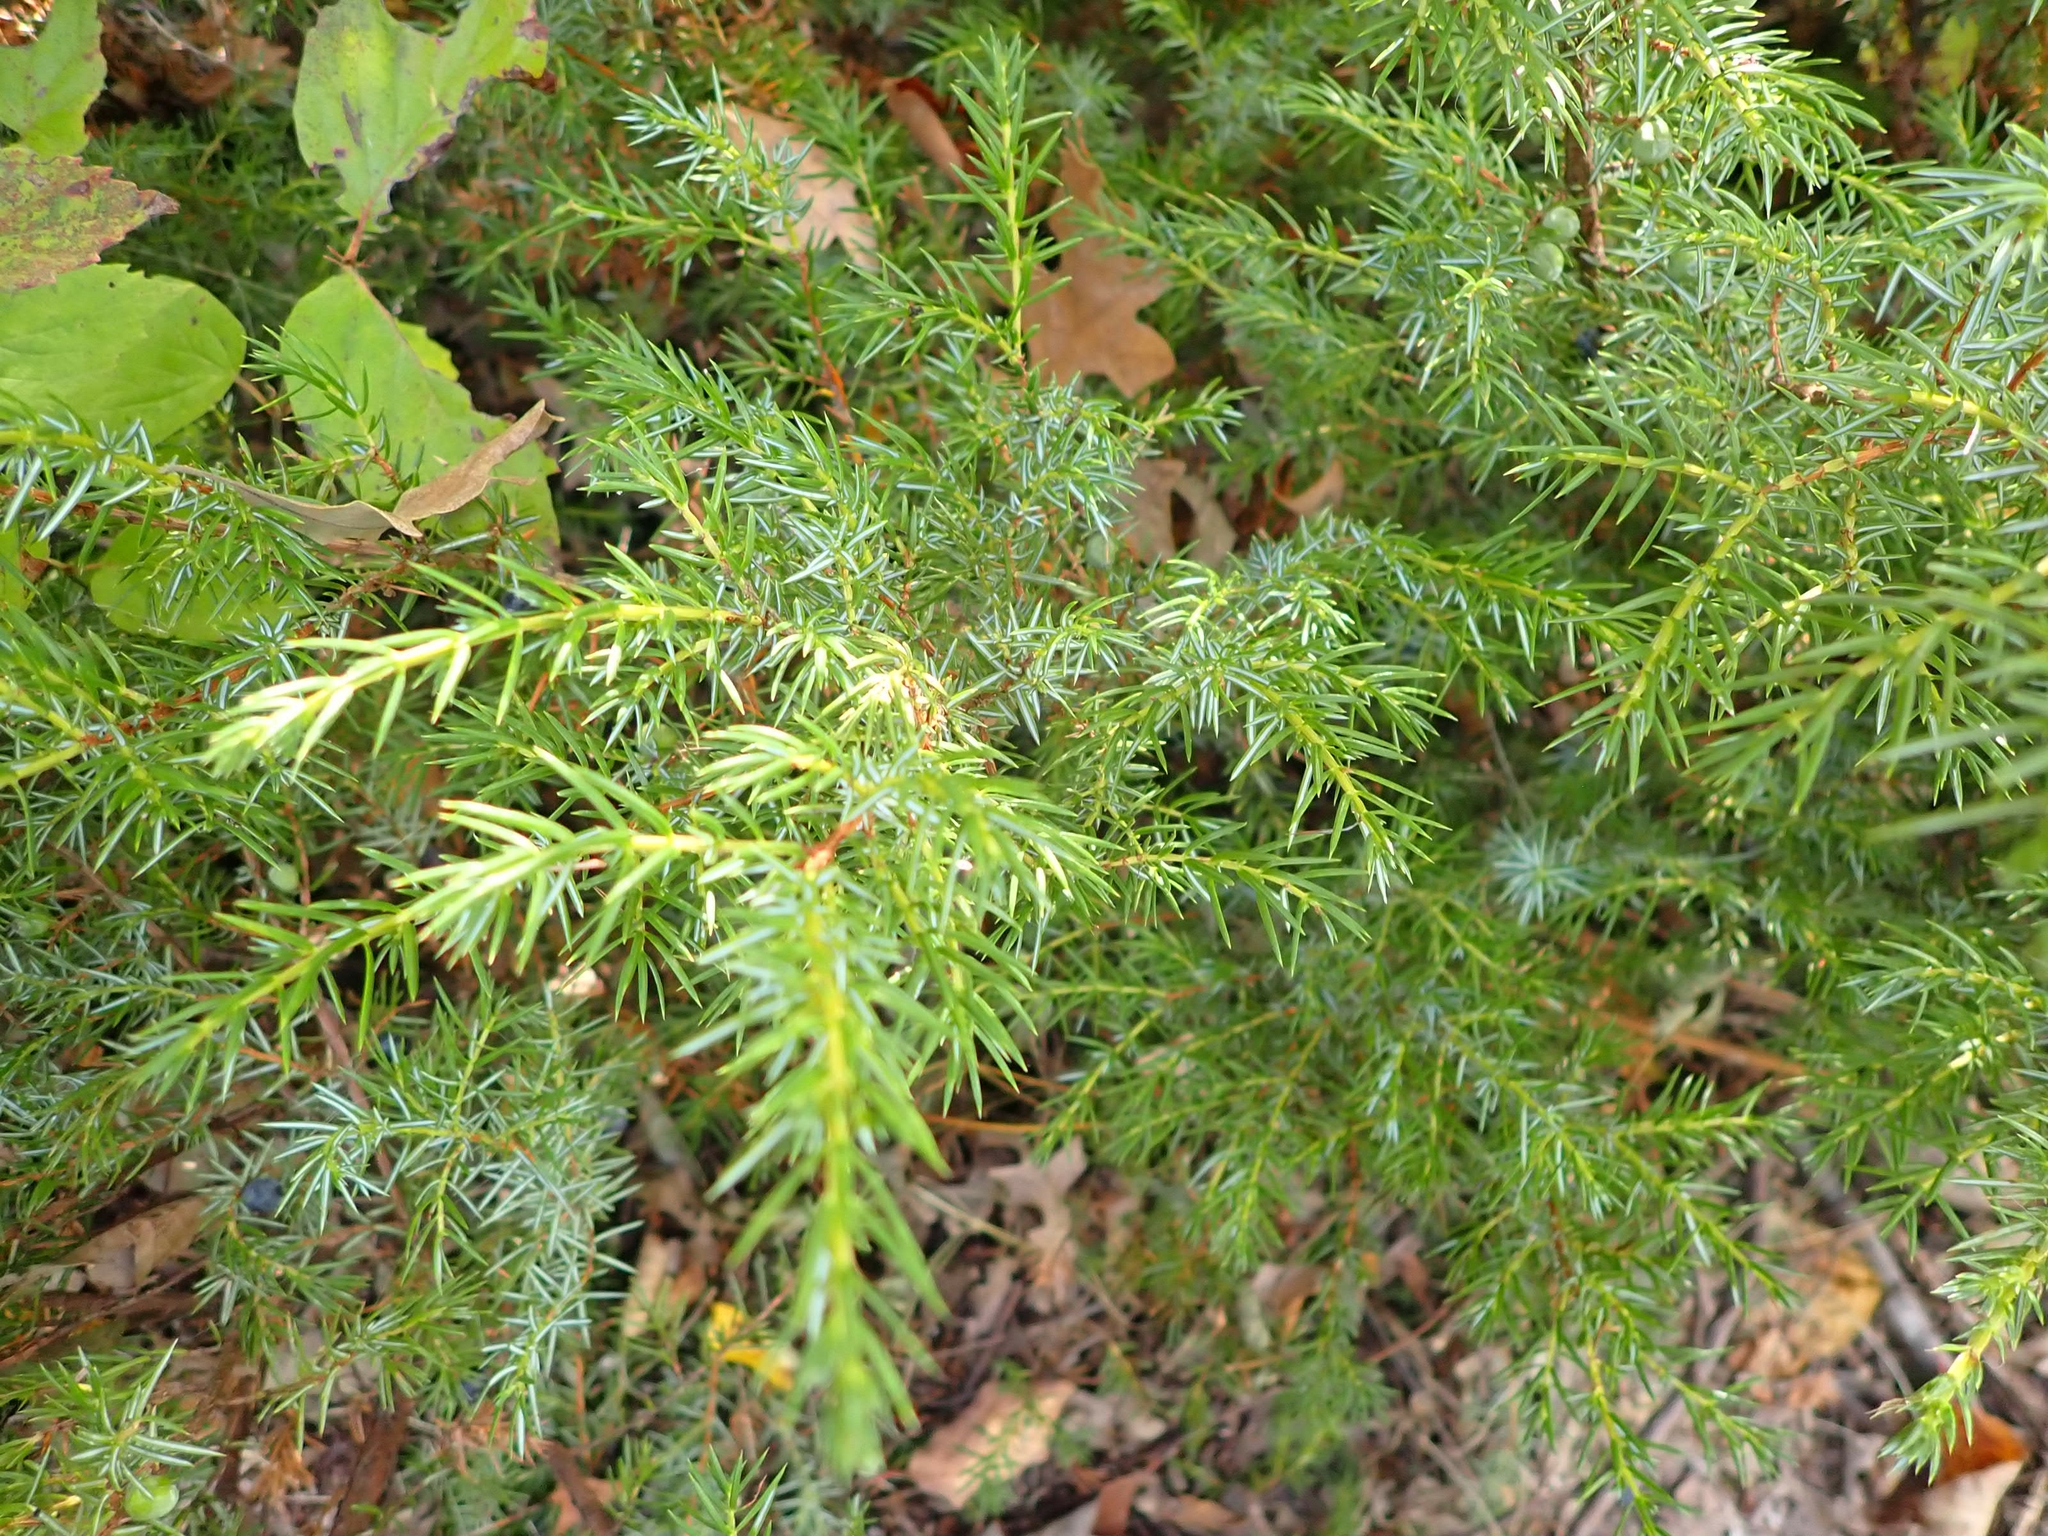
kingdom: Plantae
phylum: Tracheophyta
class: Pinopsida
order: Pinales
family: Cupressaceae
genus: Juniperus
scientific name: Juniperus communis
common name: Common juniper
